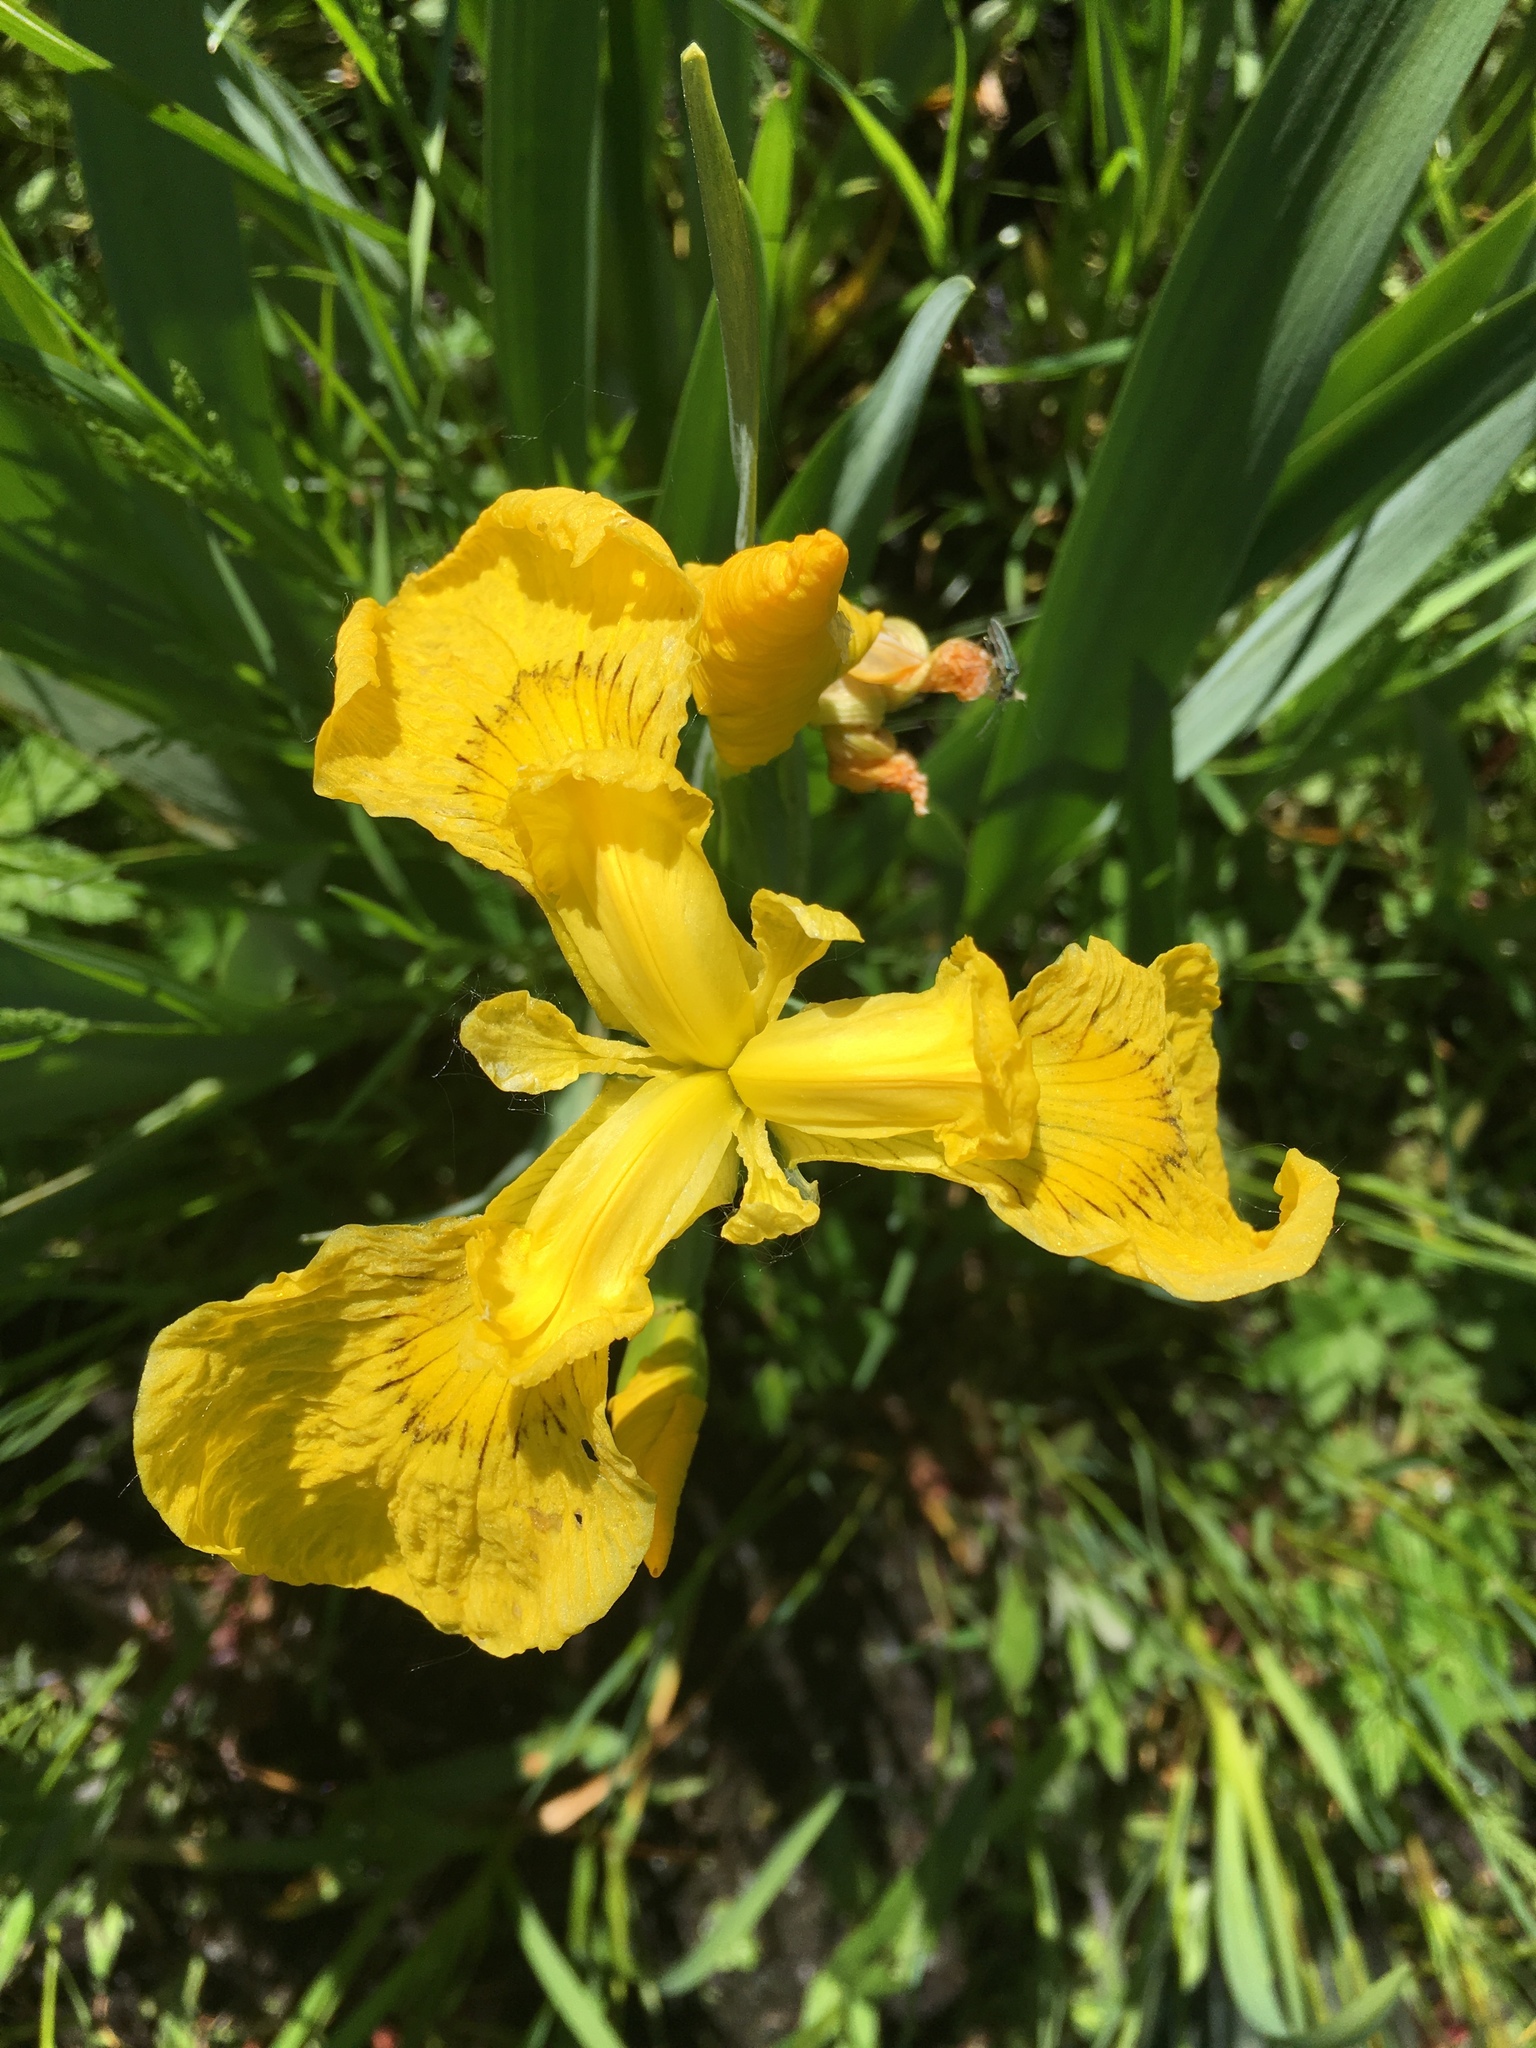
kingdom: Plantae
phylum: Tracheophyta
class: Liliopsida
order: Asparagales
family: Iridaceae
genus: Iris
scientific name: Iris pseudacorus
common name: Yellow flag
